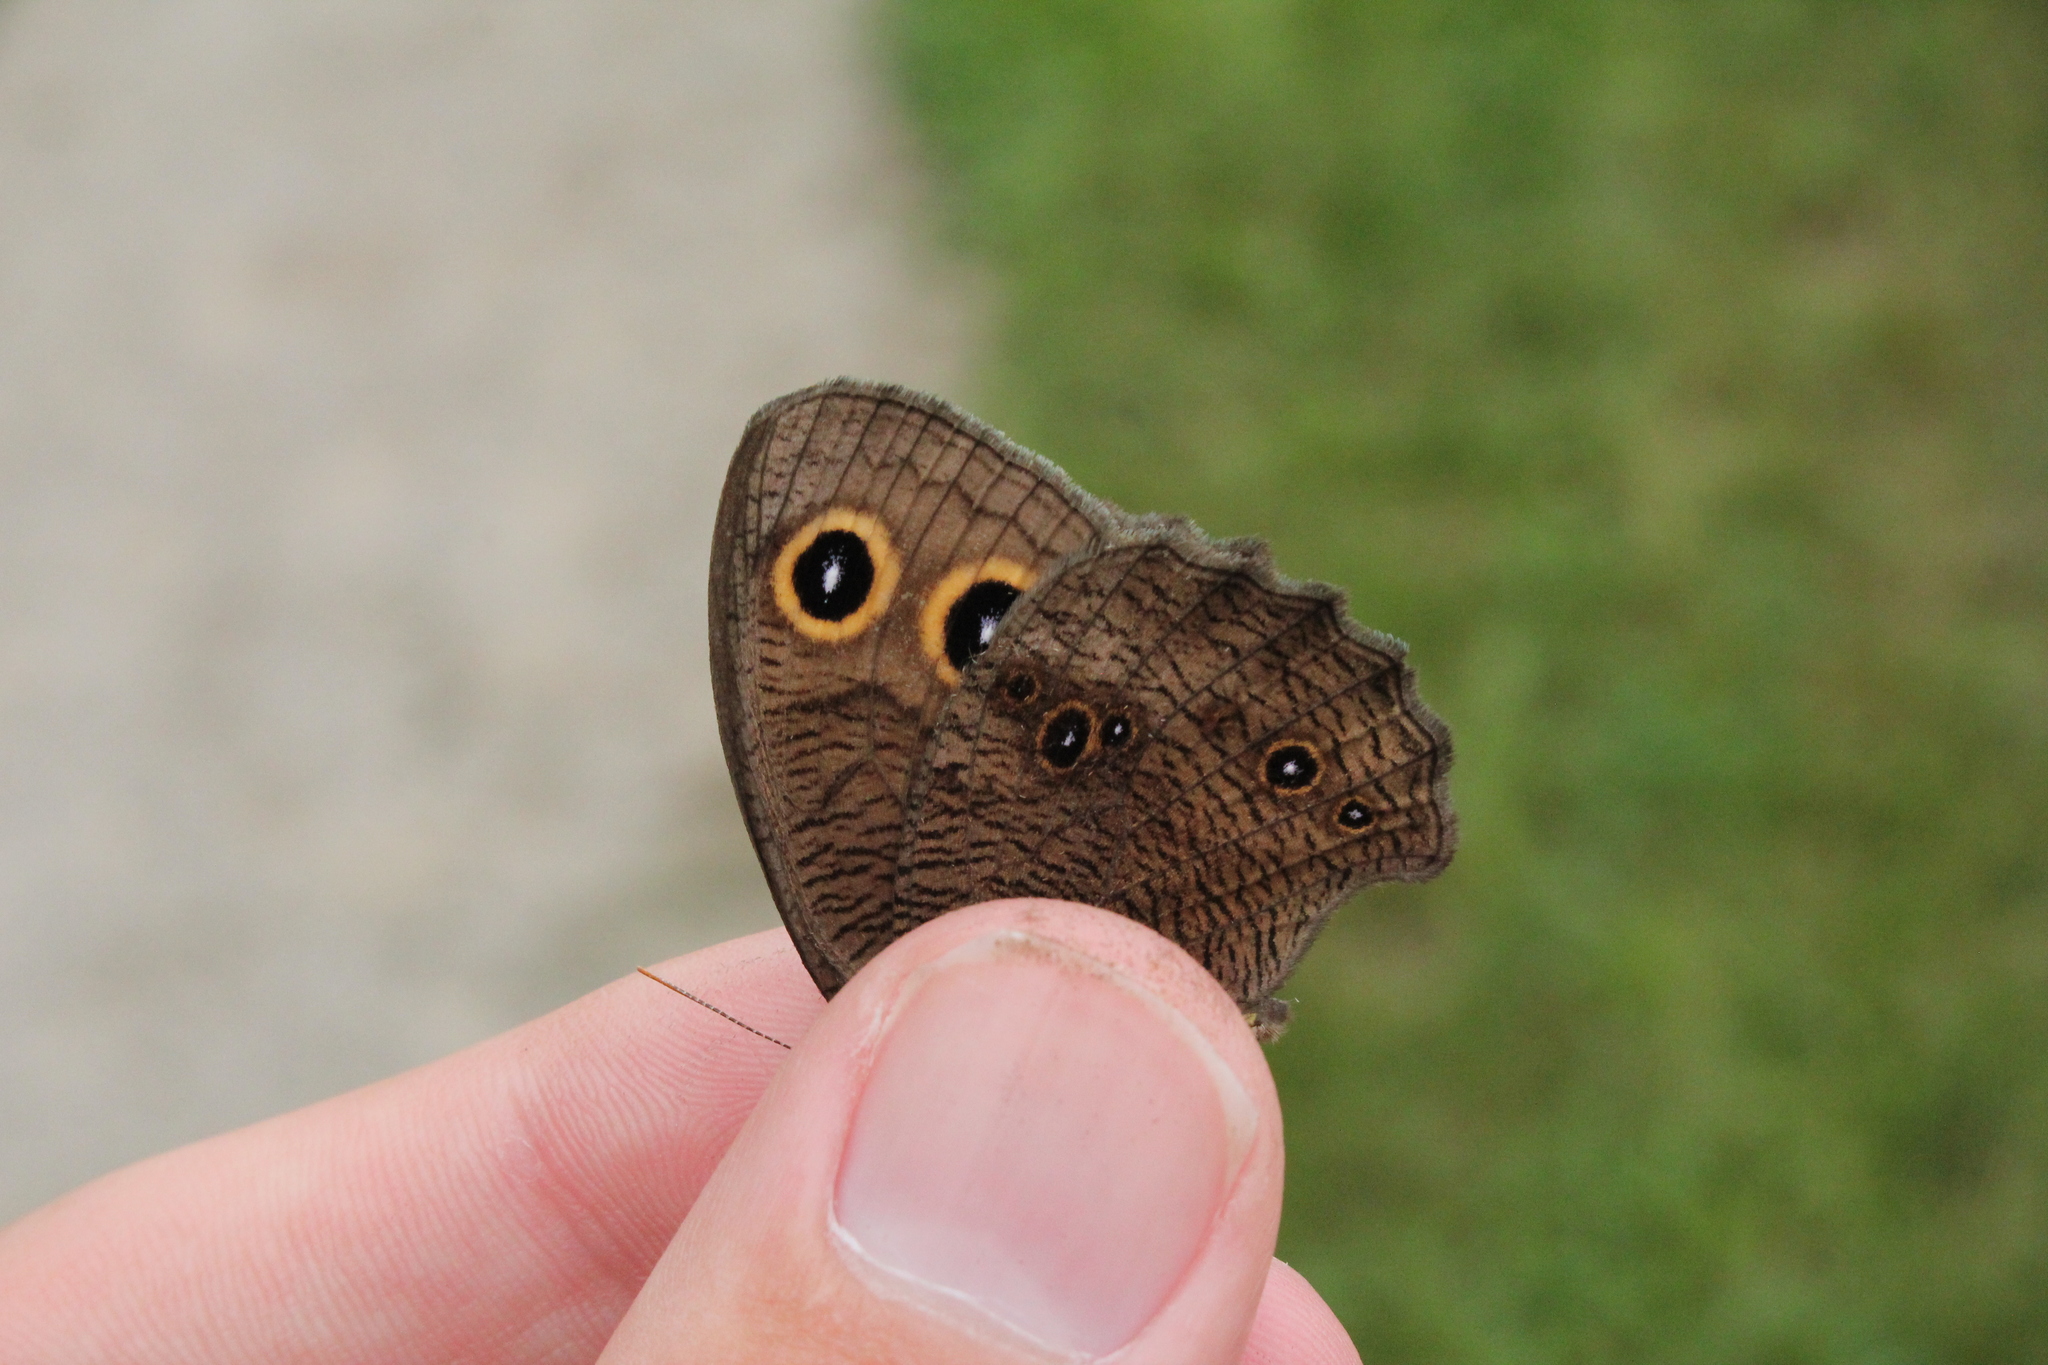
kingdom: Animalia
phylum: Arthropoda
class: Insecta
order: Lepidoptera
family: Nymphalidae
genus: Cercyonis
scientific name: Cercyonis pegala
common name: Common wood-nymph
